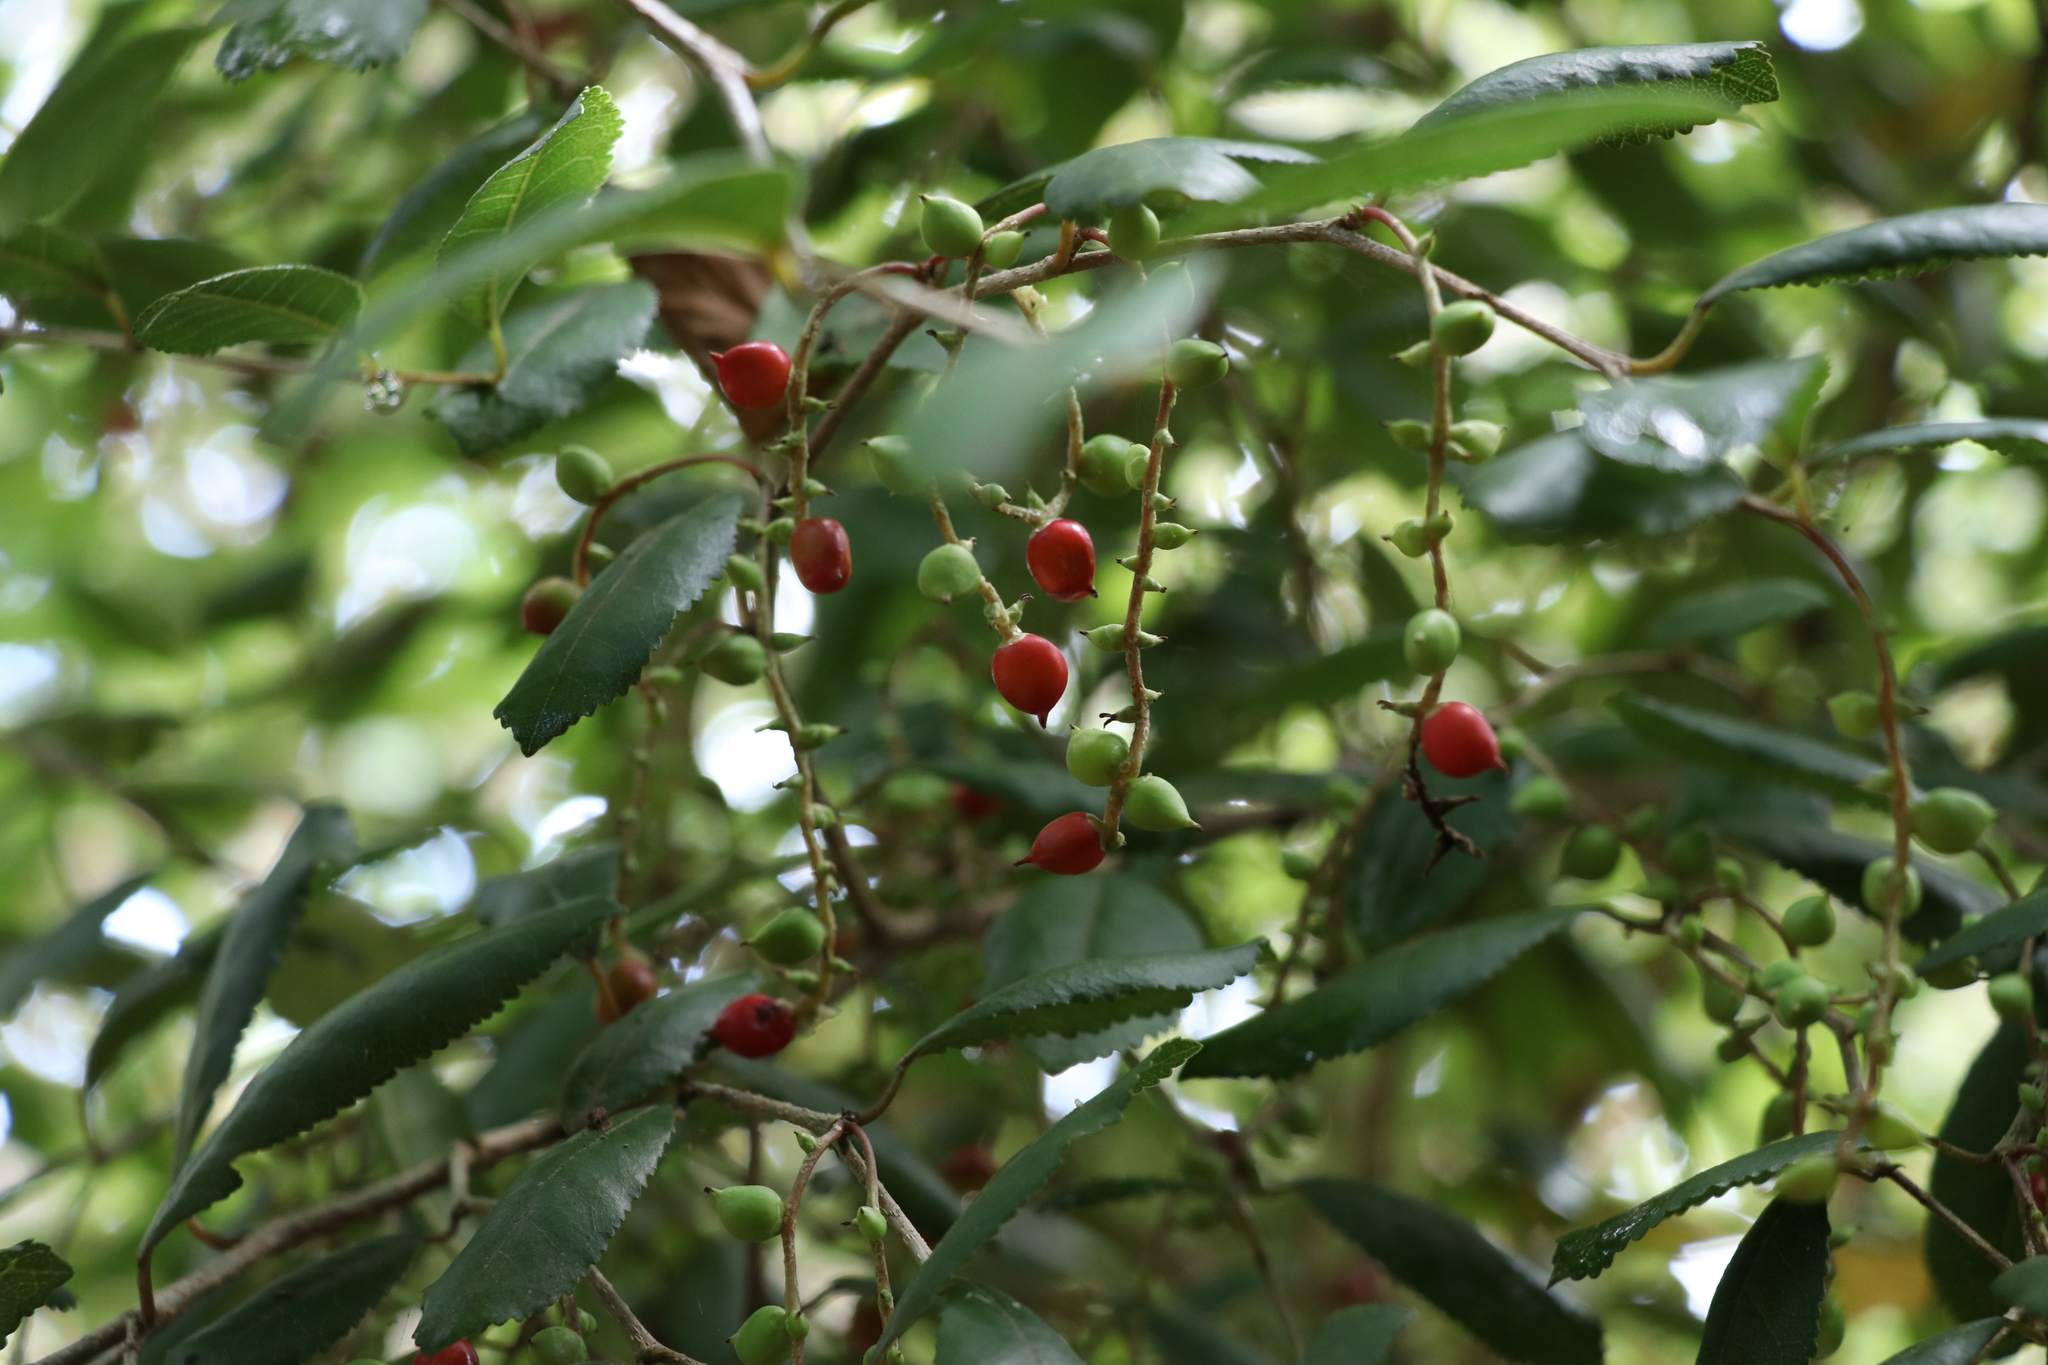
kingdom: Plantae
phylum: Tracheophyta
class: Magnoliopsida
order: Rosales
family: Moraceae
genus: Paratrophis
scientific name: Paratrophis banksii
